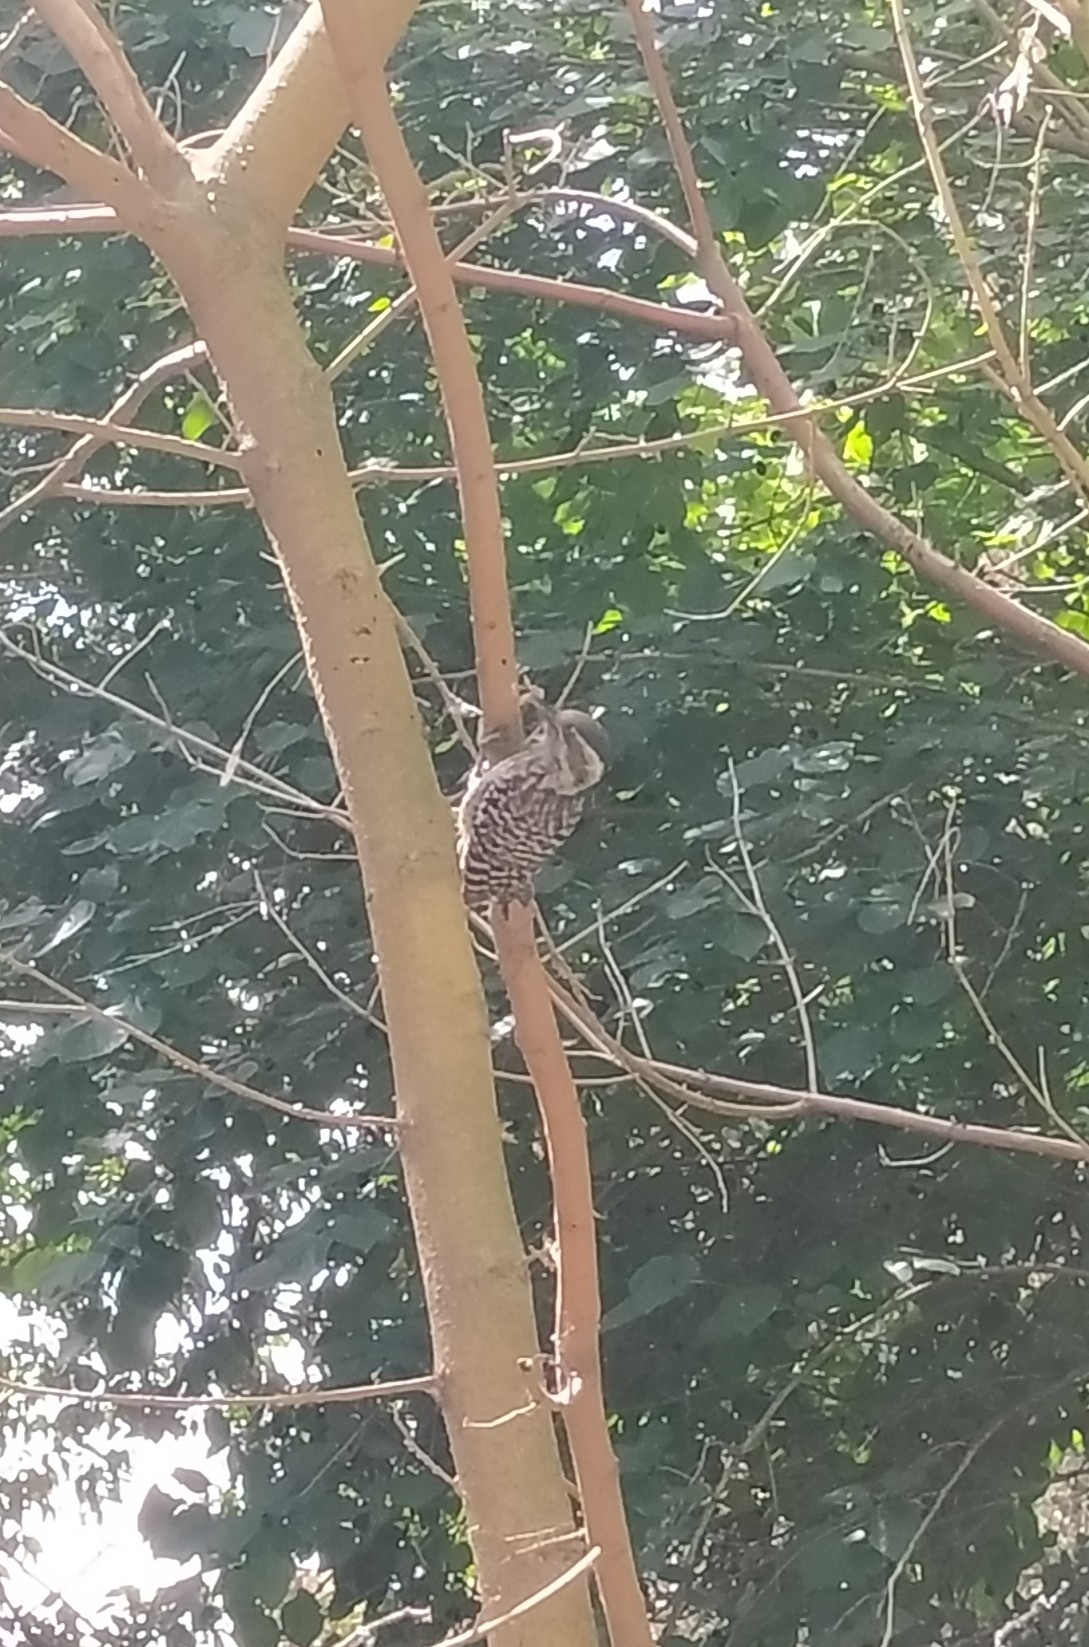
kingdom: Animalia
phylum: Chordata
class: Aves
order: Piciformes
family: Picidae
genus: Veniliornis
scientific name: Veniliornis mixtus
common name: Checkered woodpecker
